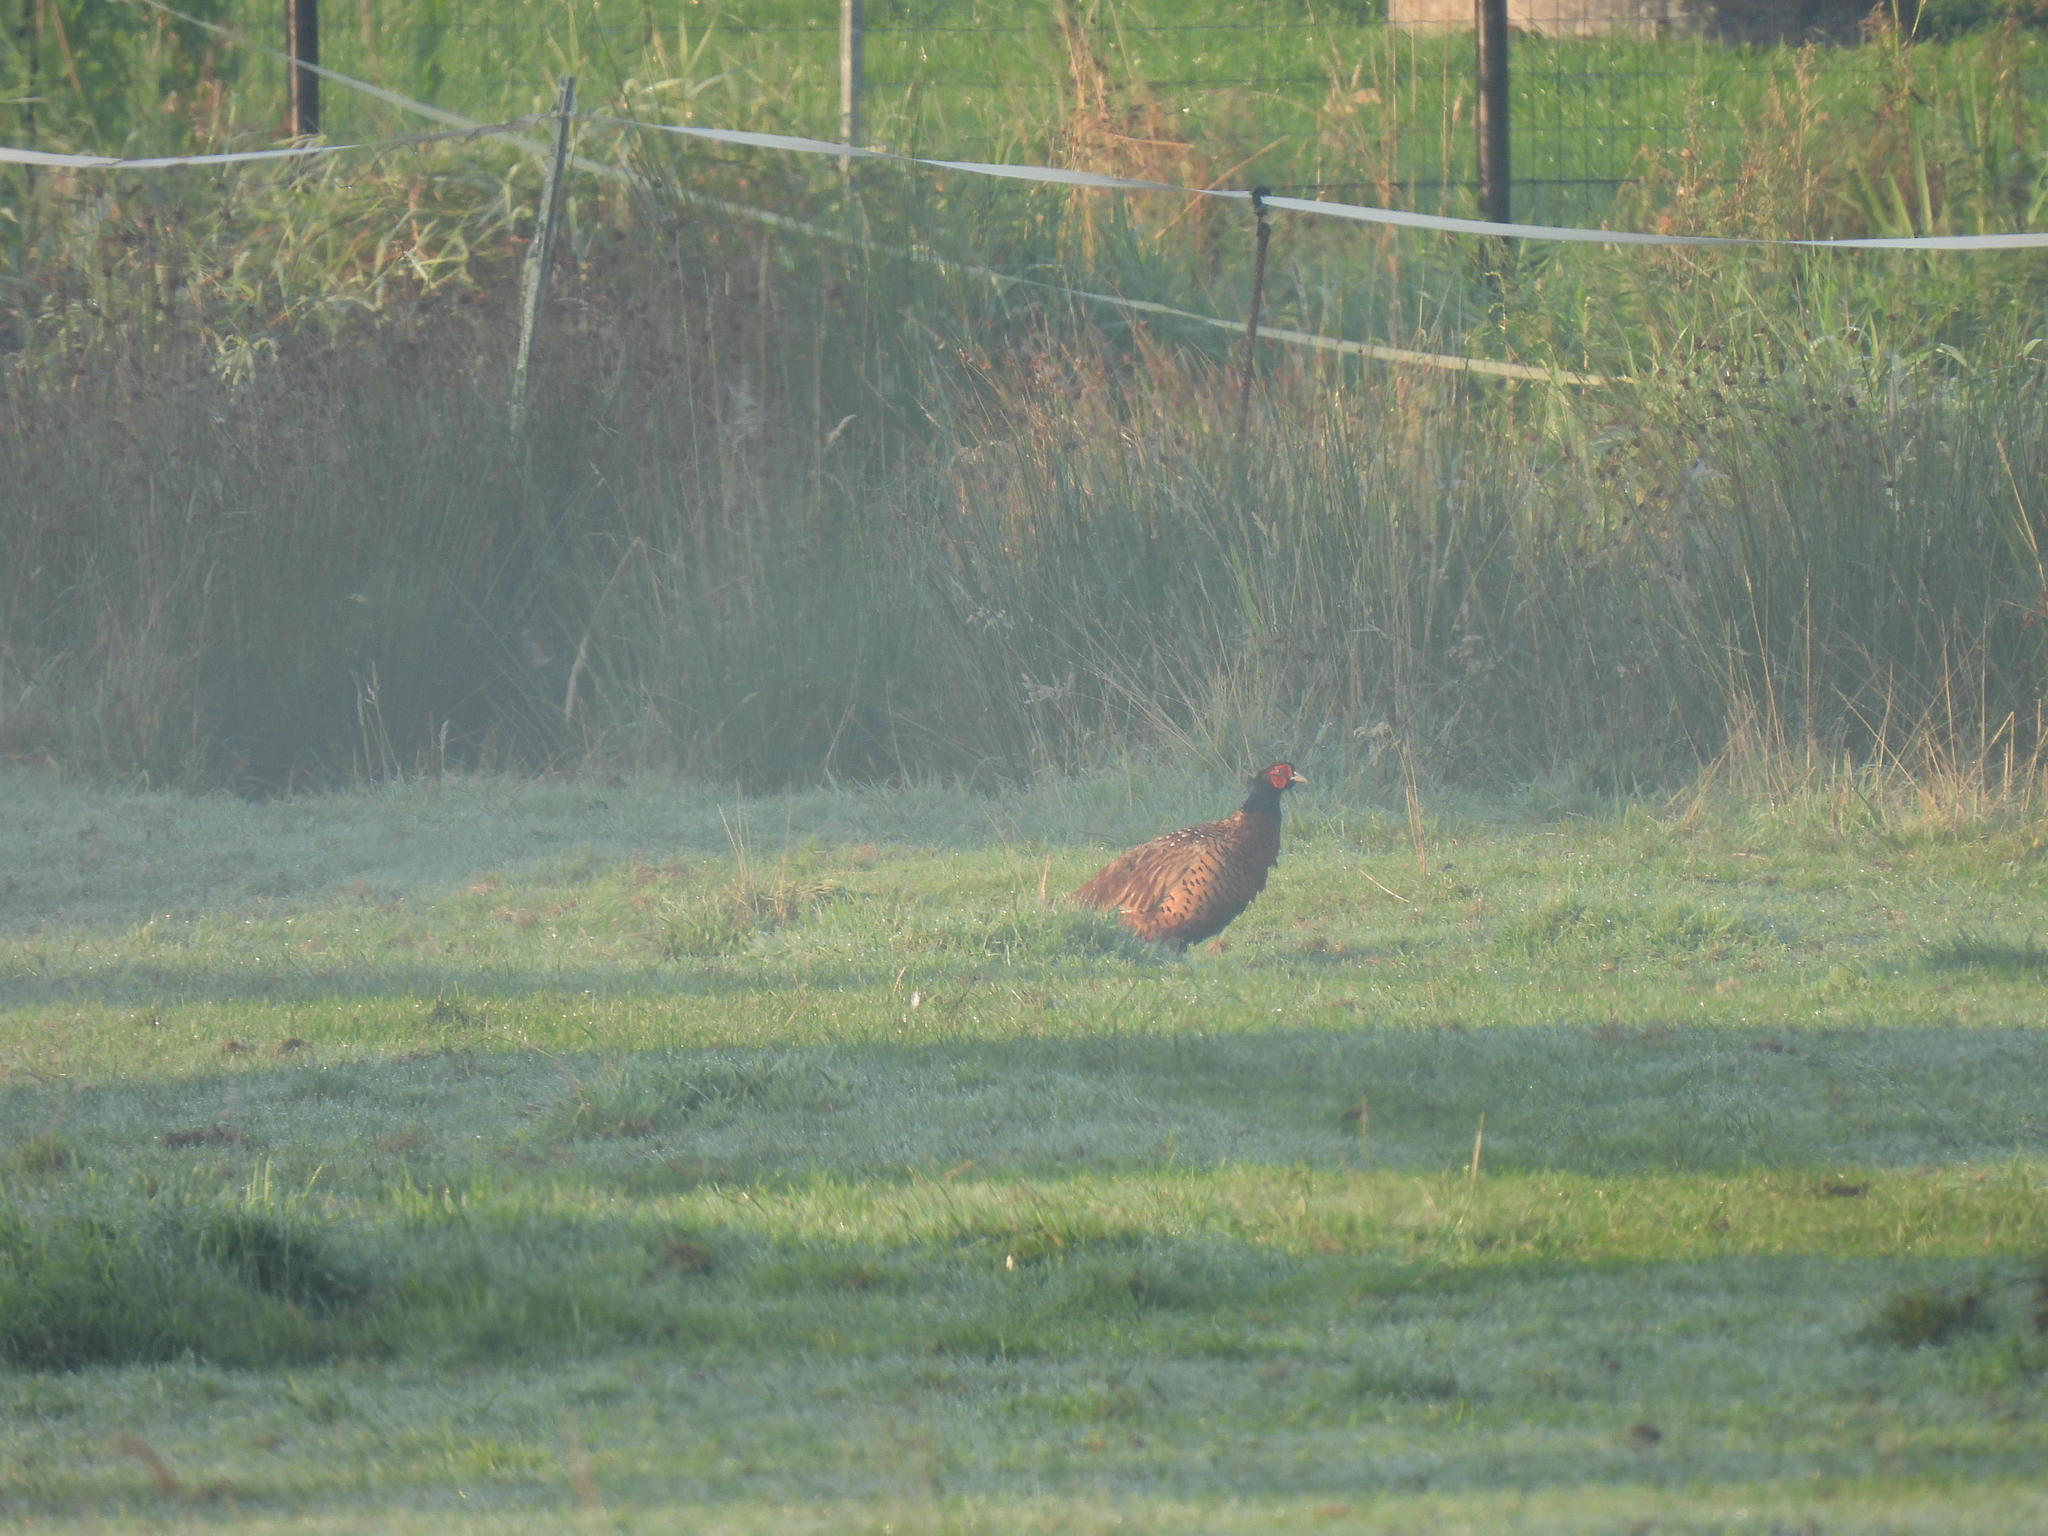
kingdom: Animalia
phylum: Chordata
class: Aves
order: Galliformes
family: Phasianidae
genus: Phasianus
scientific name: Phasianus colchicus
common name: Common pheasant
